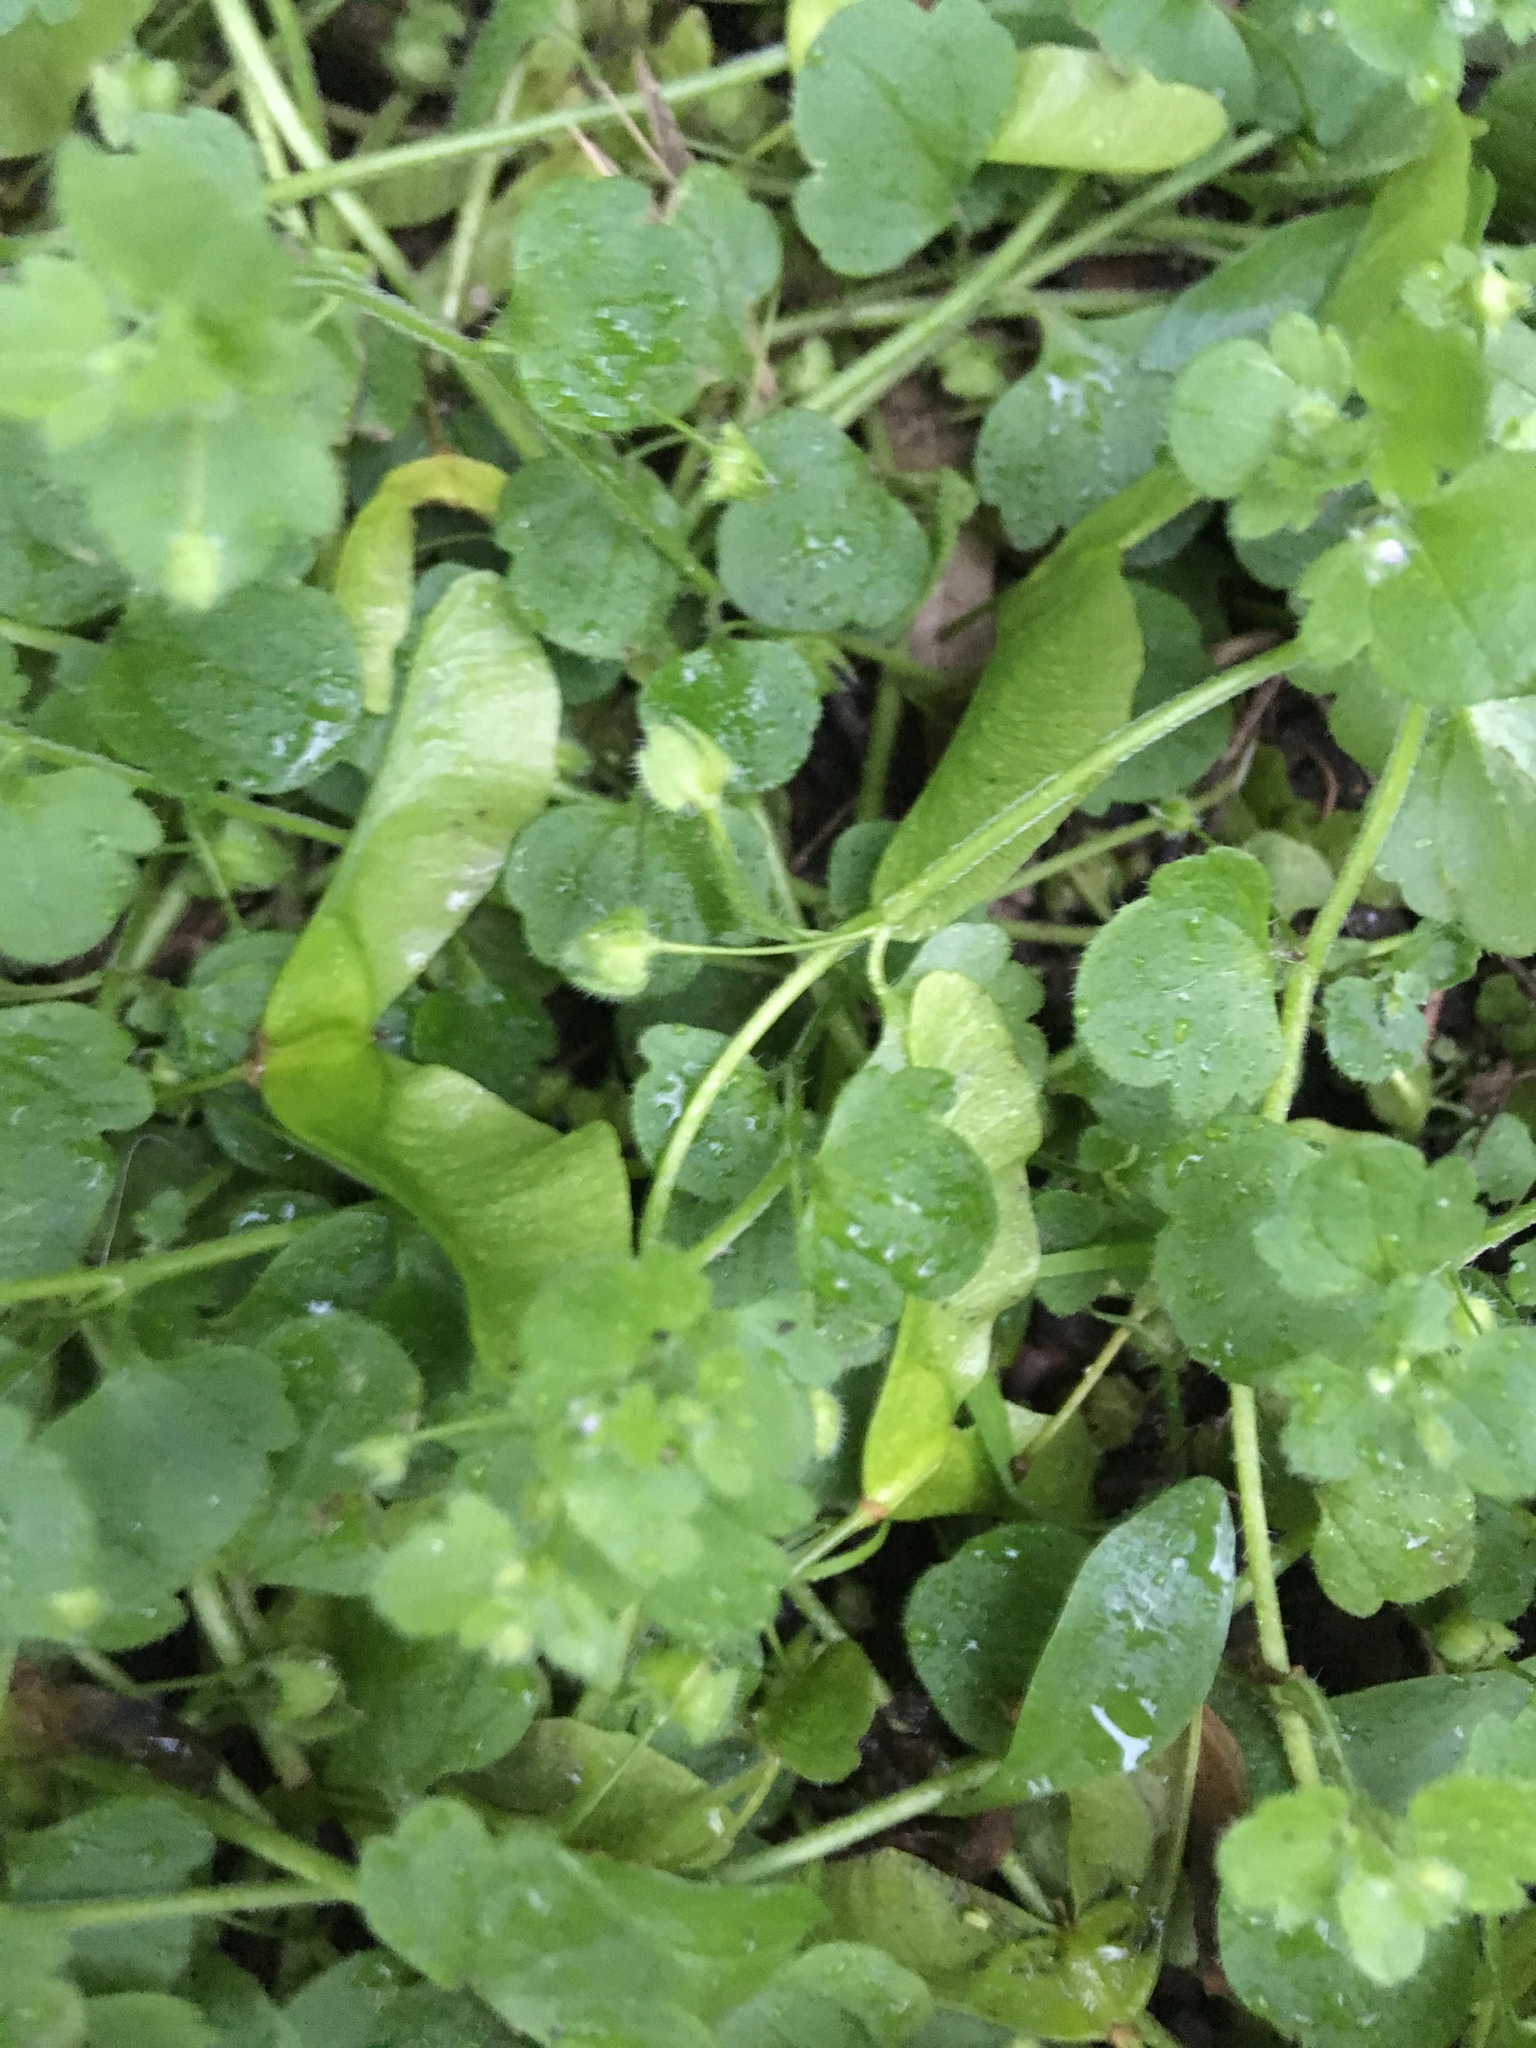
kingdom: Plantae
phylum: Tracheophyta
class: Magnoliopsida
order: Lamiales
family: Plantaginaceae
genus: Veronica
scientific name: Veronica hederifolia
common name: Ivy-leaved speedwell
